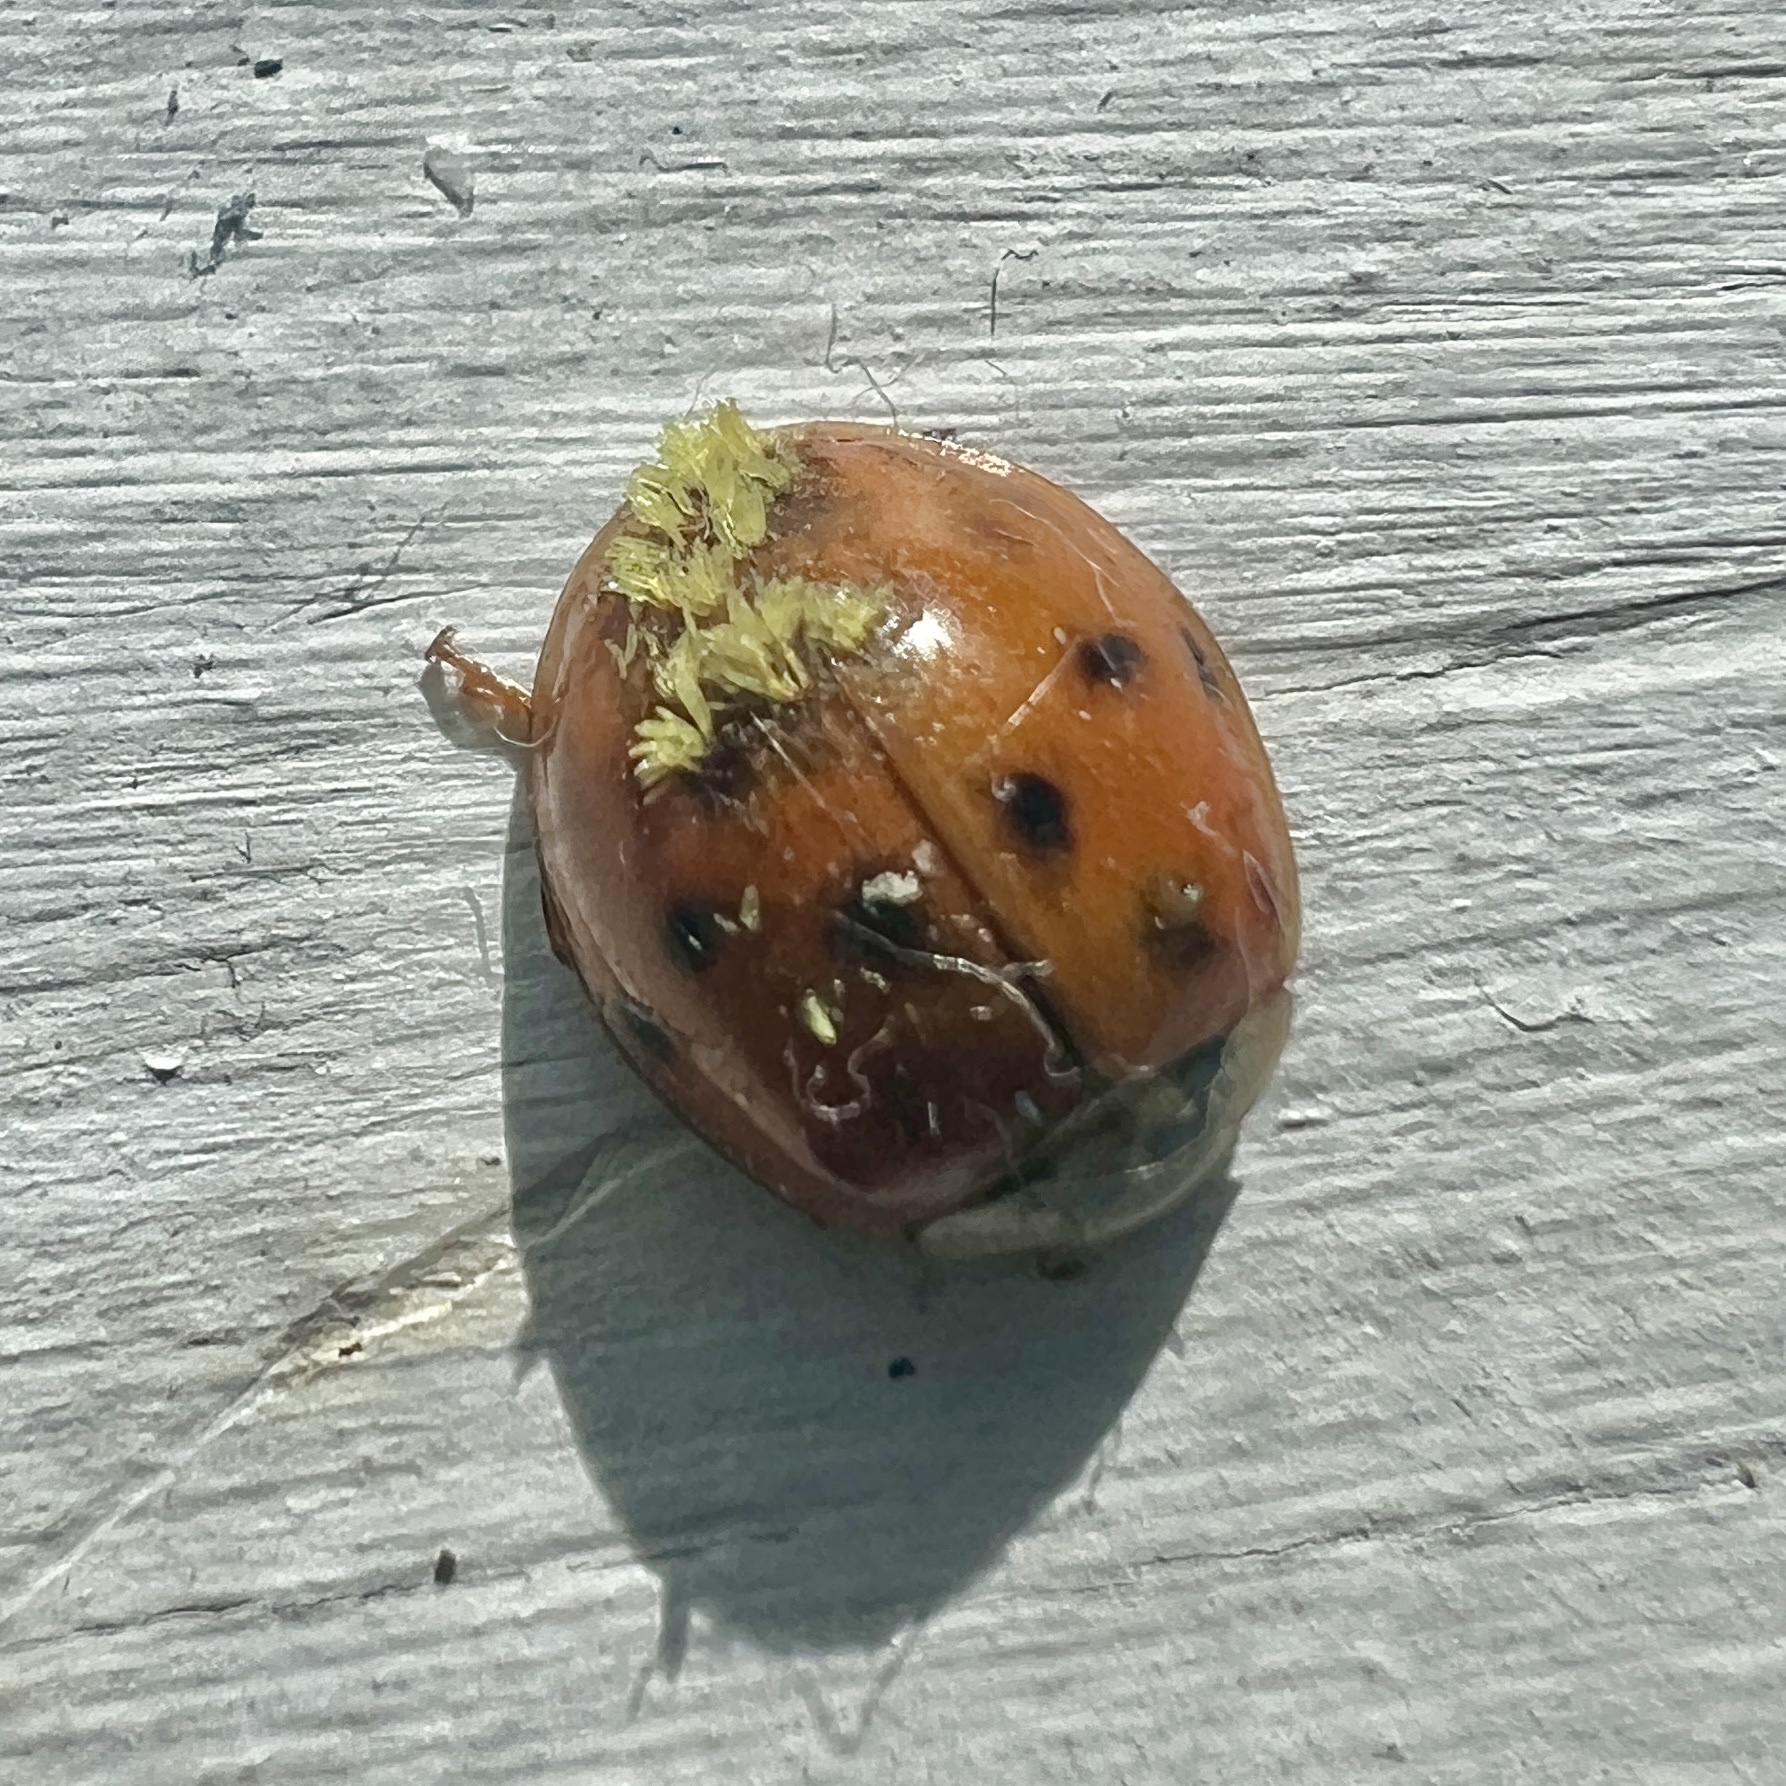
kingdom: Fungi
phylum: Ascomycota
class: Laboulbeniomycetes
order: Laboulbeniales
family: Laboulbeniaceae
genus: Hesperomyces
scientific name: Hesperomyces harmoniae
